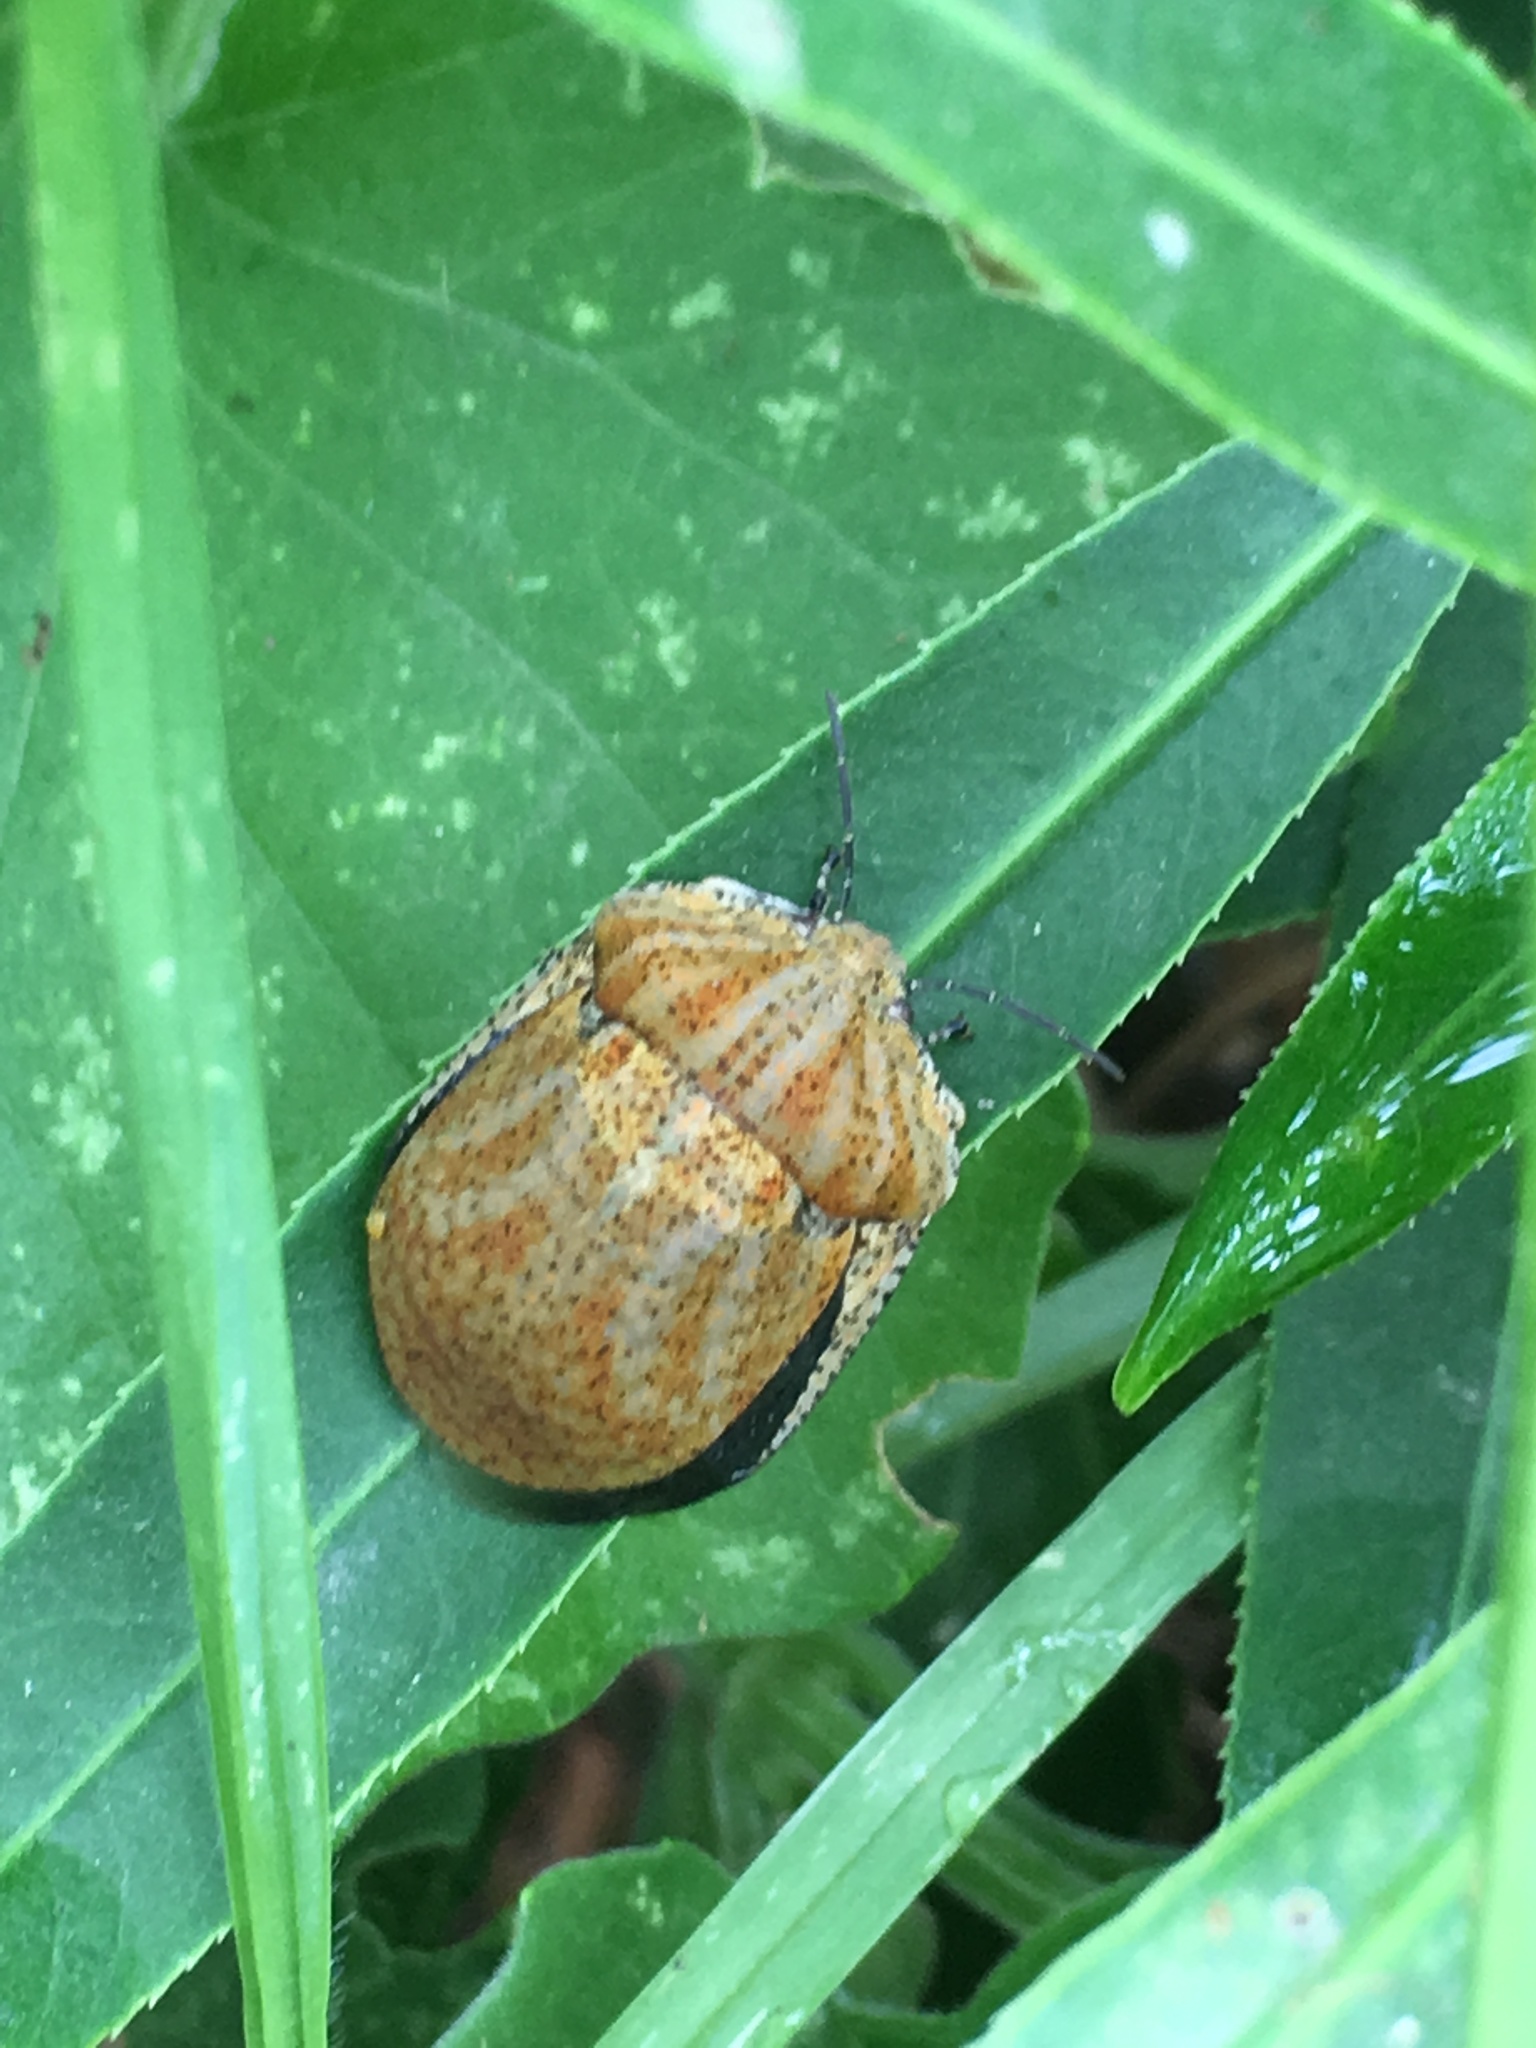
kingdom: Animalia
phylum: Arthropoda
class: Insecta
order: Hemiptera
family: Scutelleridae
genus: Tetyra
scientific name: Tetyra
